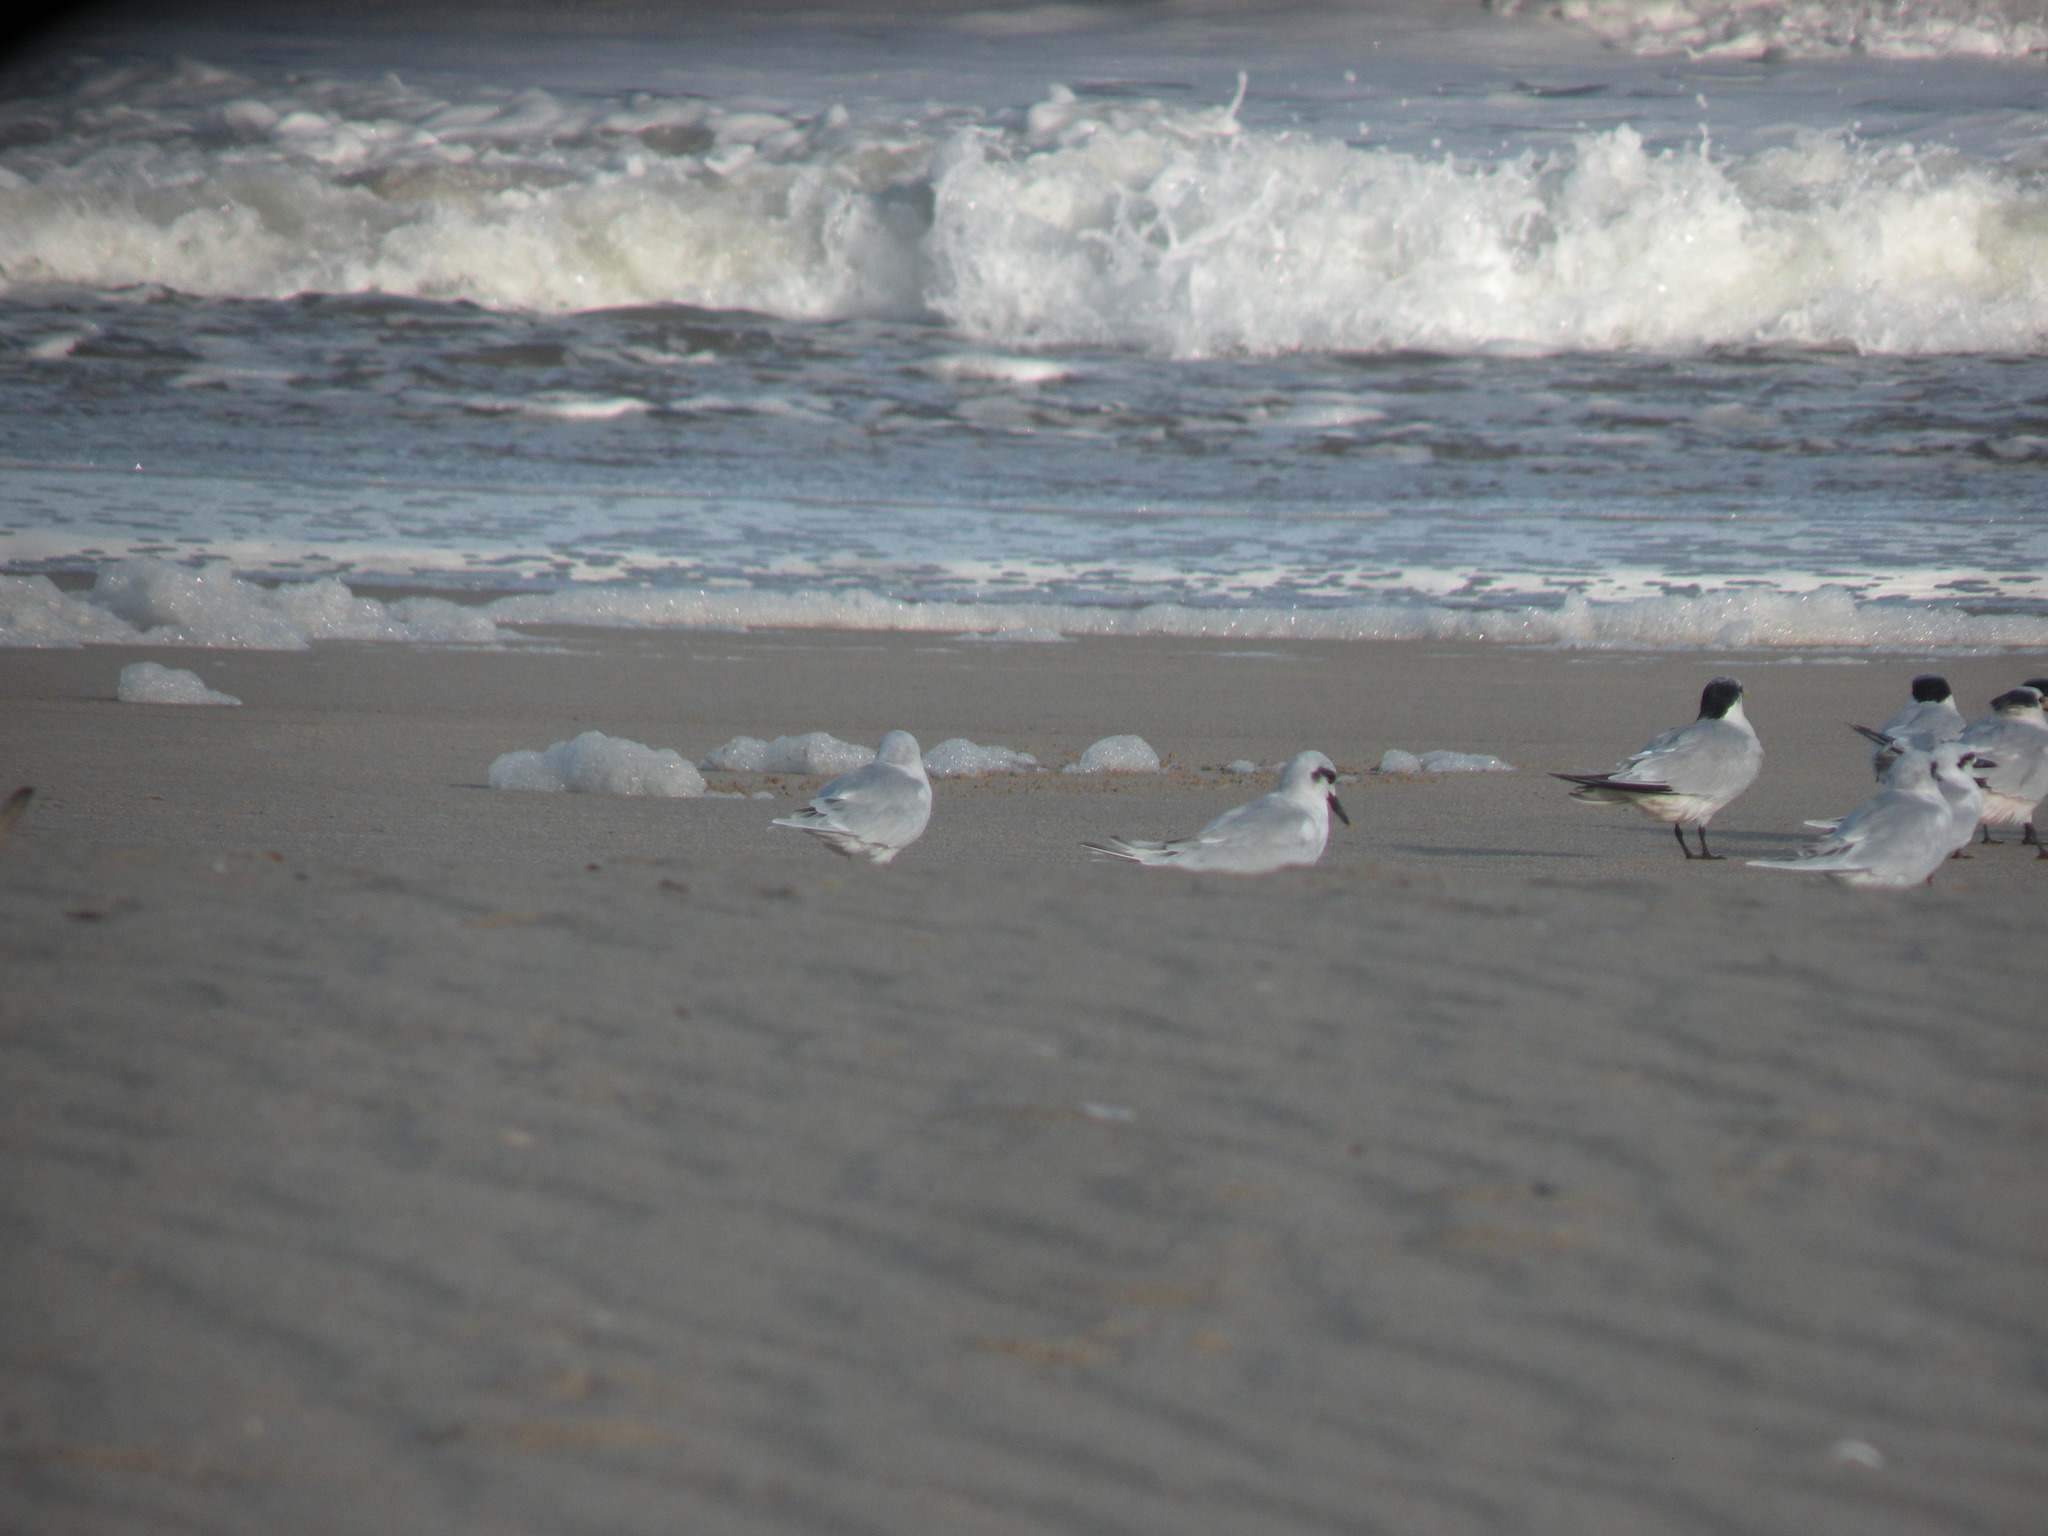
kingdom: Animalia
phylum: Chordata
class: Aves
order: Charadriiformes
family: Laridae
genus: Sterna
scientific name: Sterna trudeaui
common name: Snowy-crowned tern
